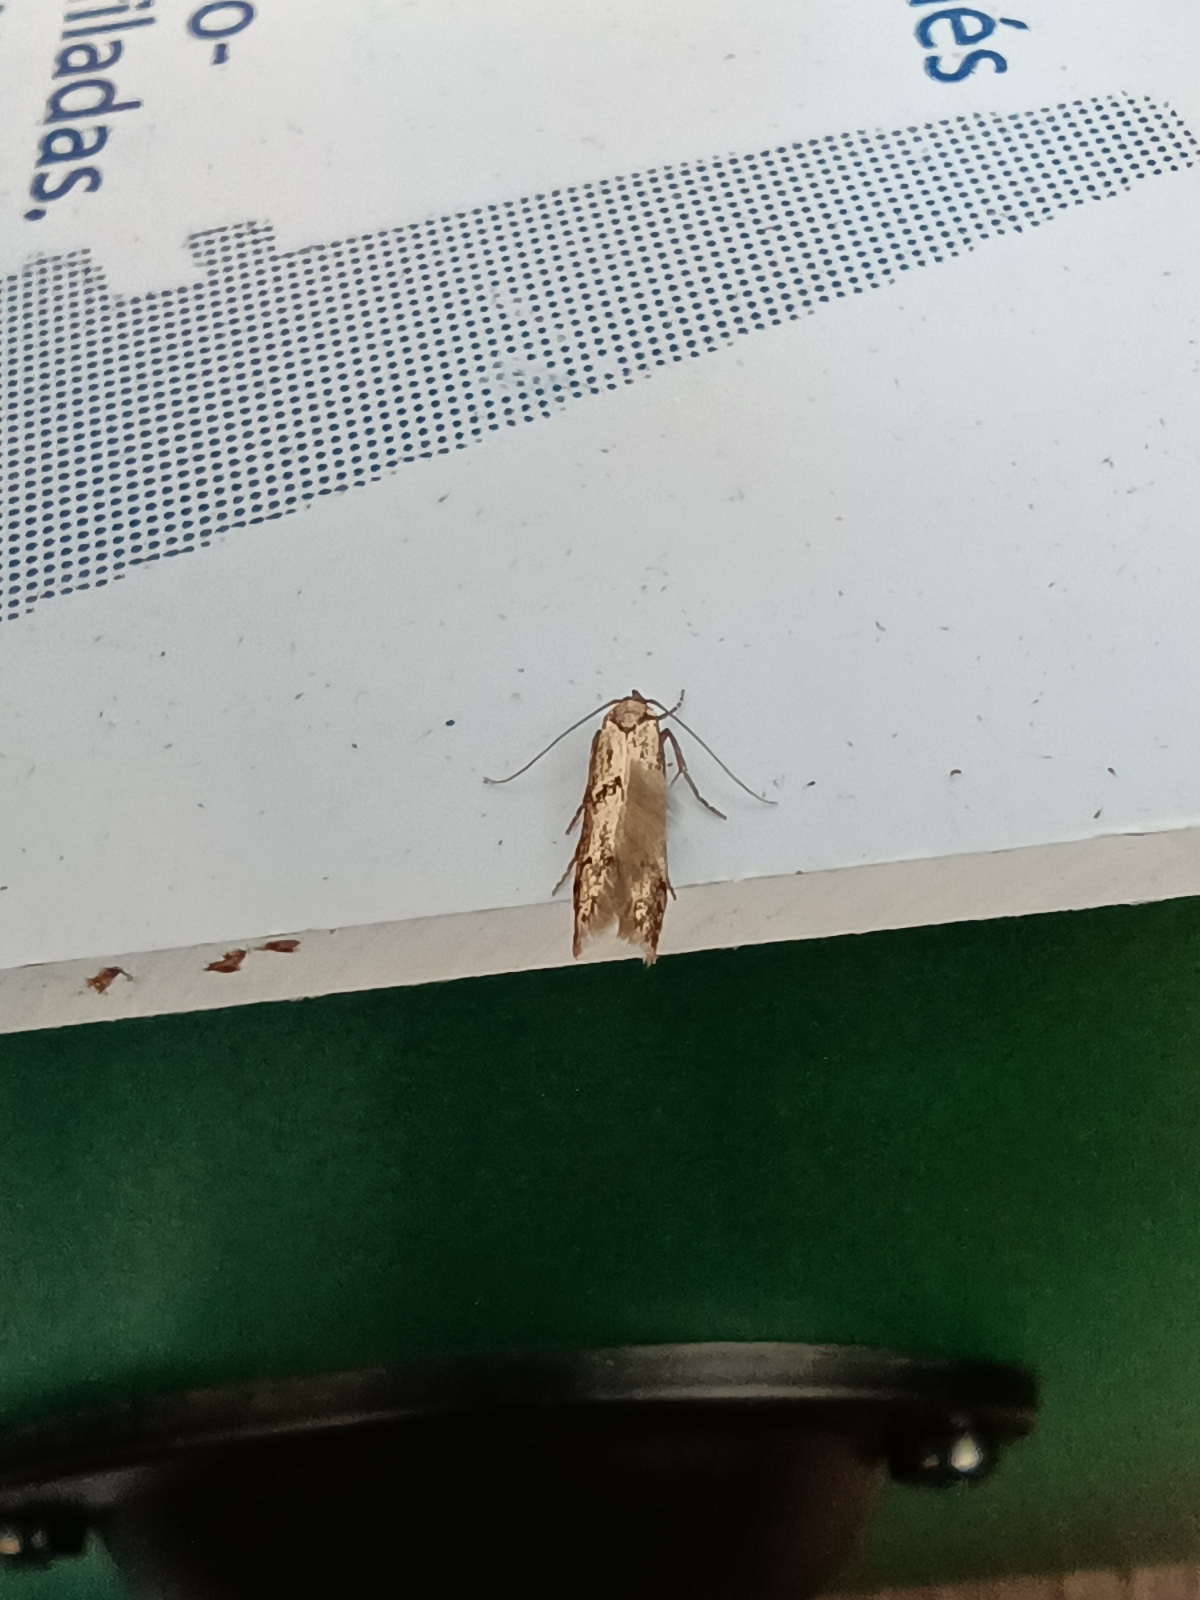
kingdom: Animalia
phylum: Arthropoda
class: Insecta
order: Lepidoptera
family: Blastobasidae
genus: Blastobasis
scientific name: Blastobasis adustella
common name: Dingy dowd
